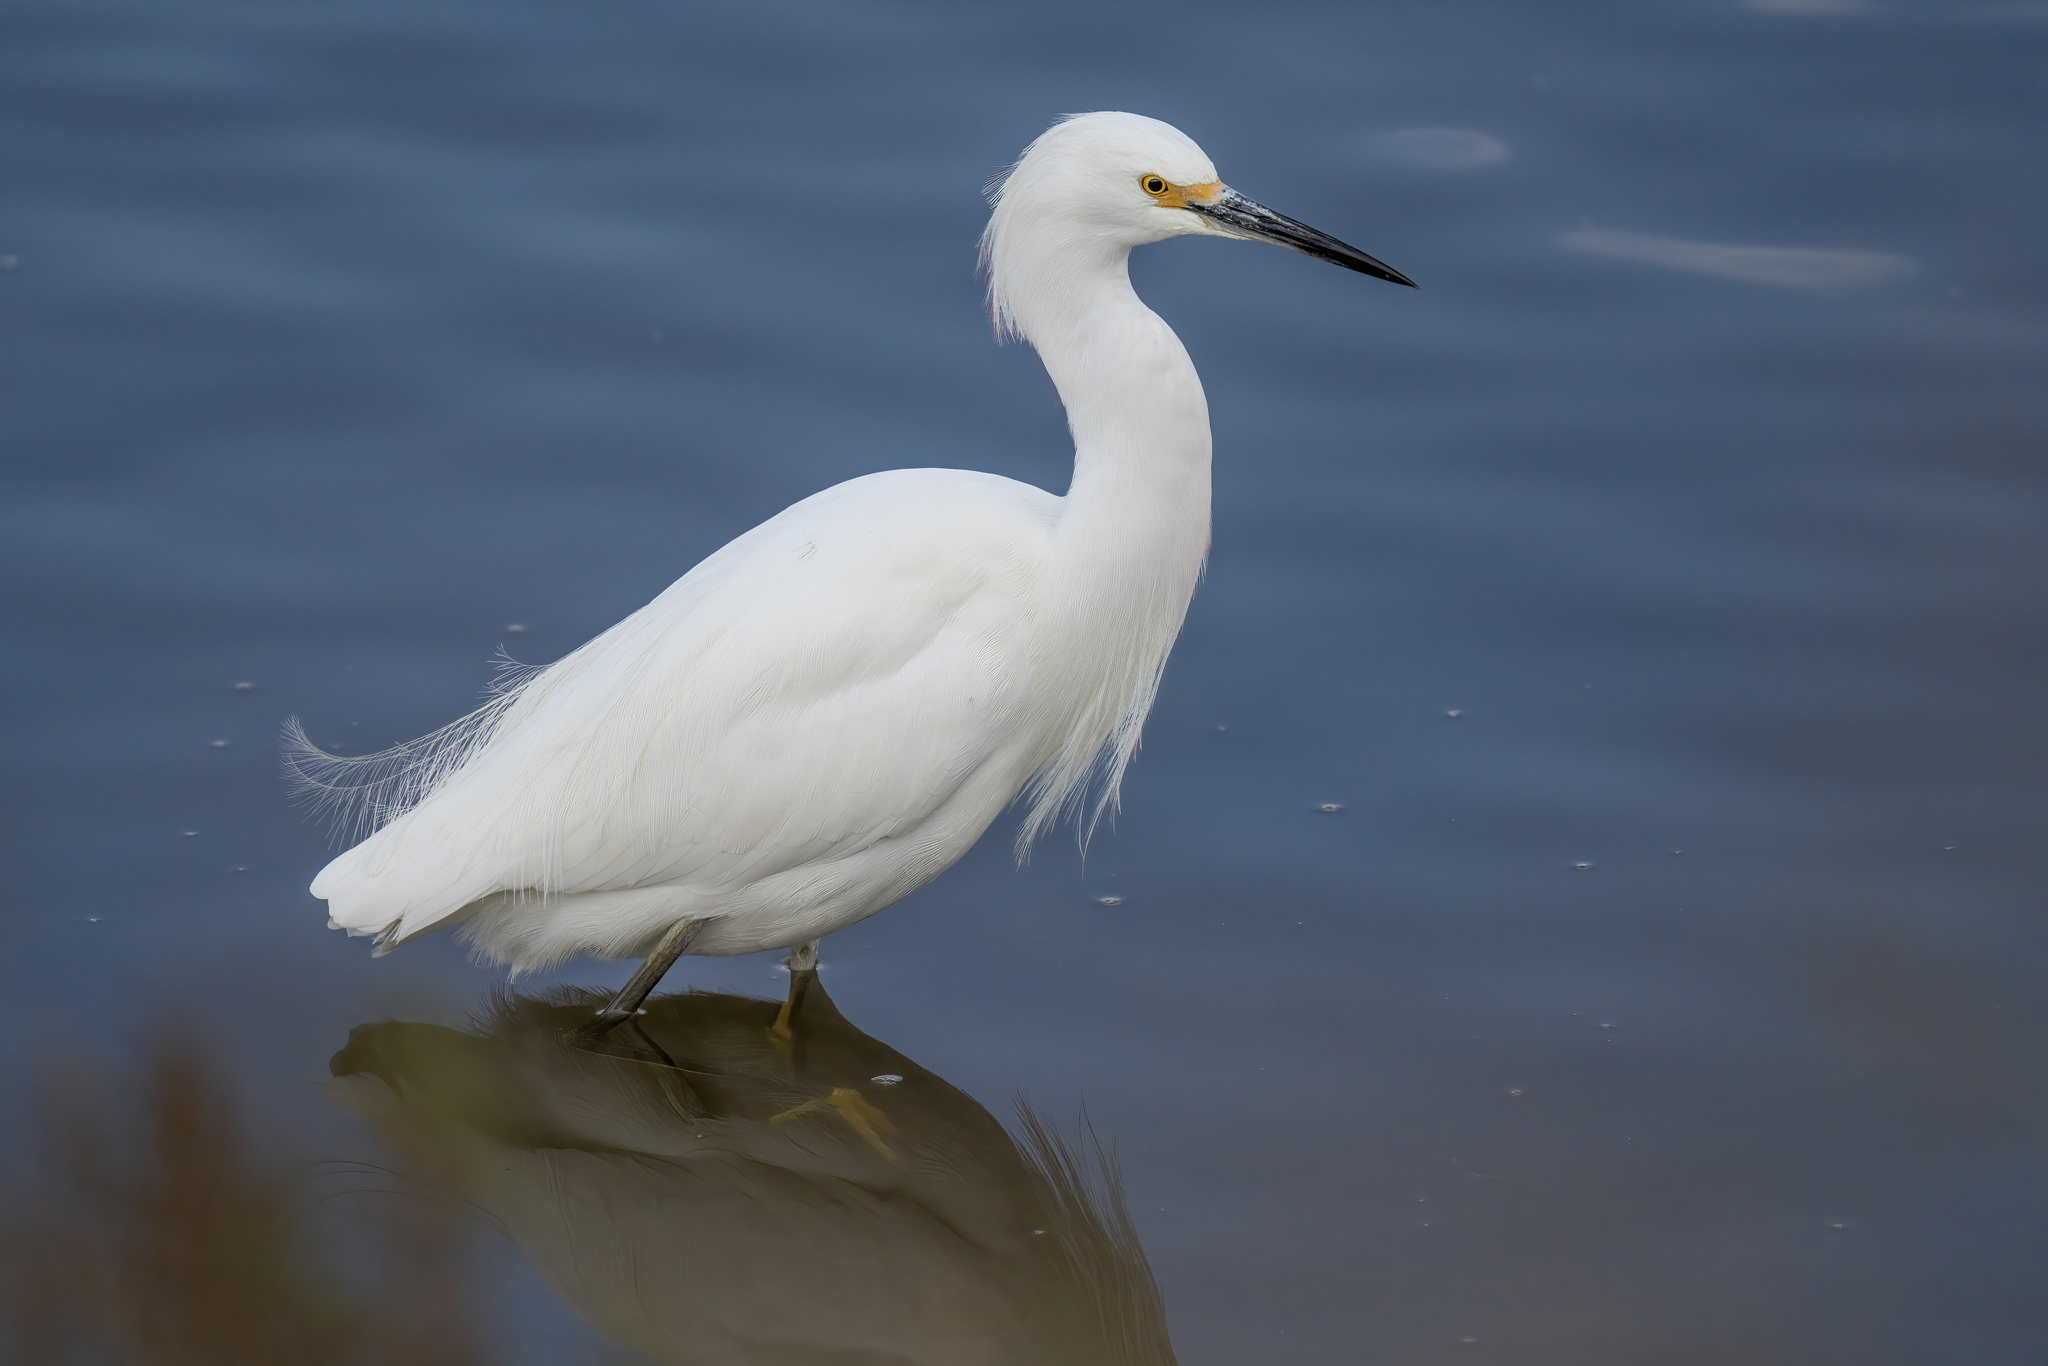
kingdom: Animalia
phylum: Chordata
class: Aves
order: Pelecaniformes
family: Ardeidae
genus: Egretta
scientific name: Egretta thula
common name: Snowy egret
